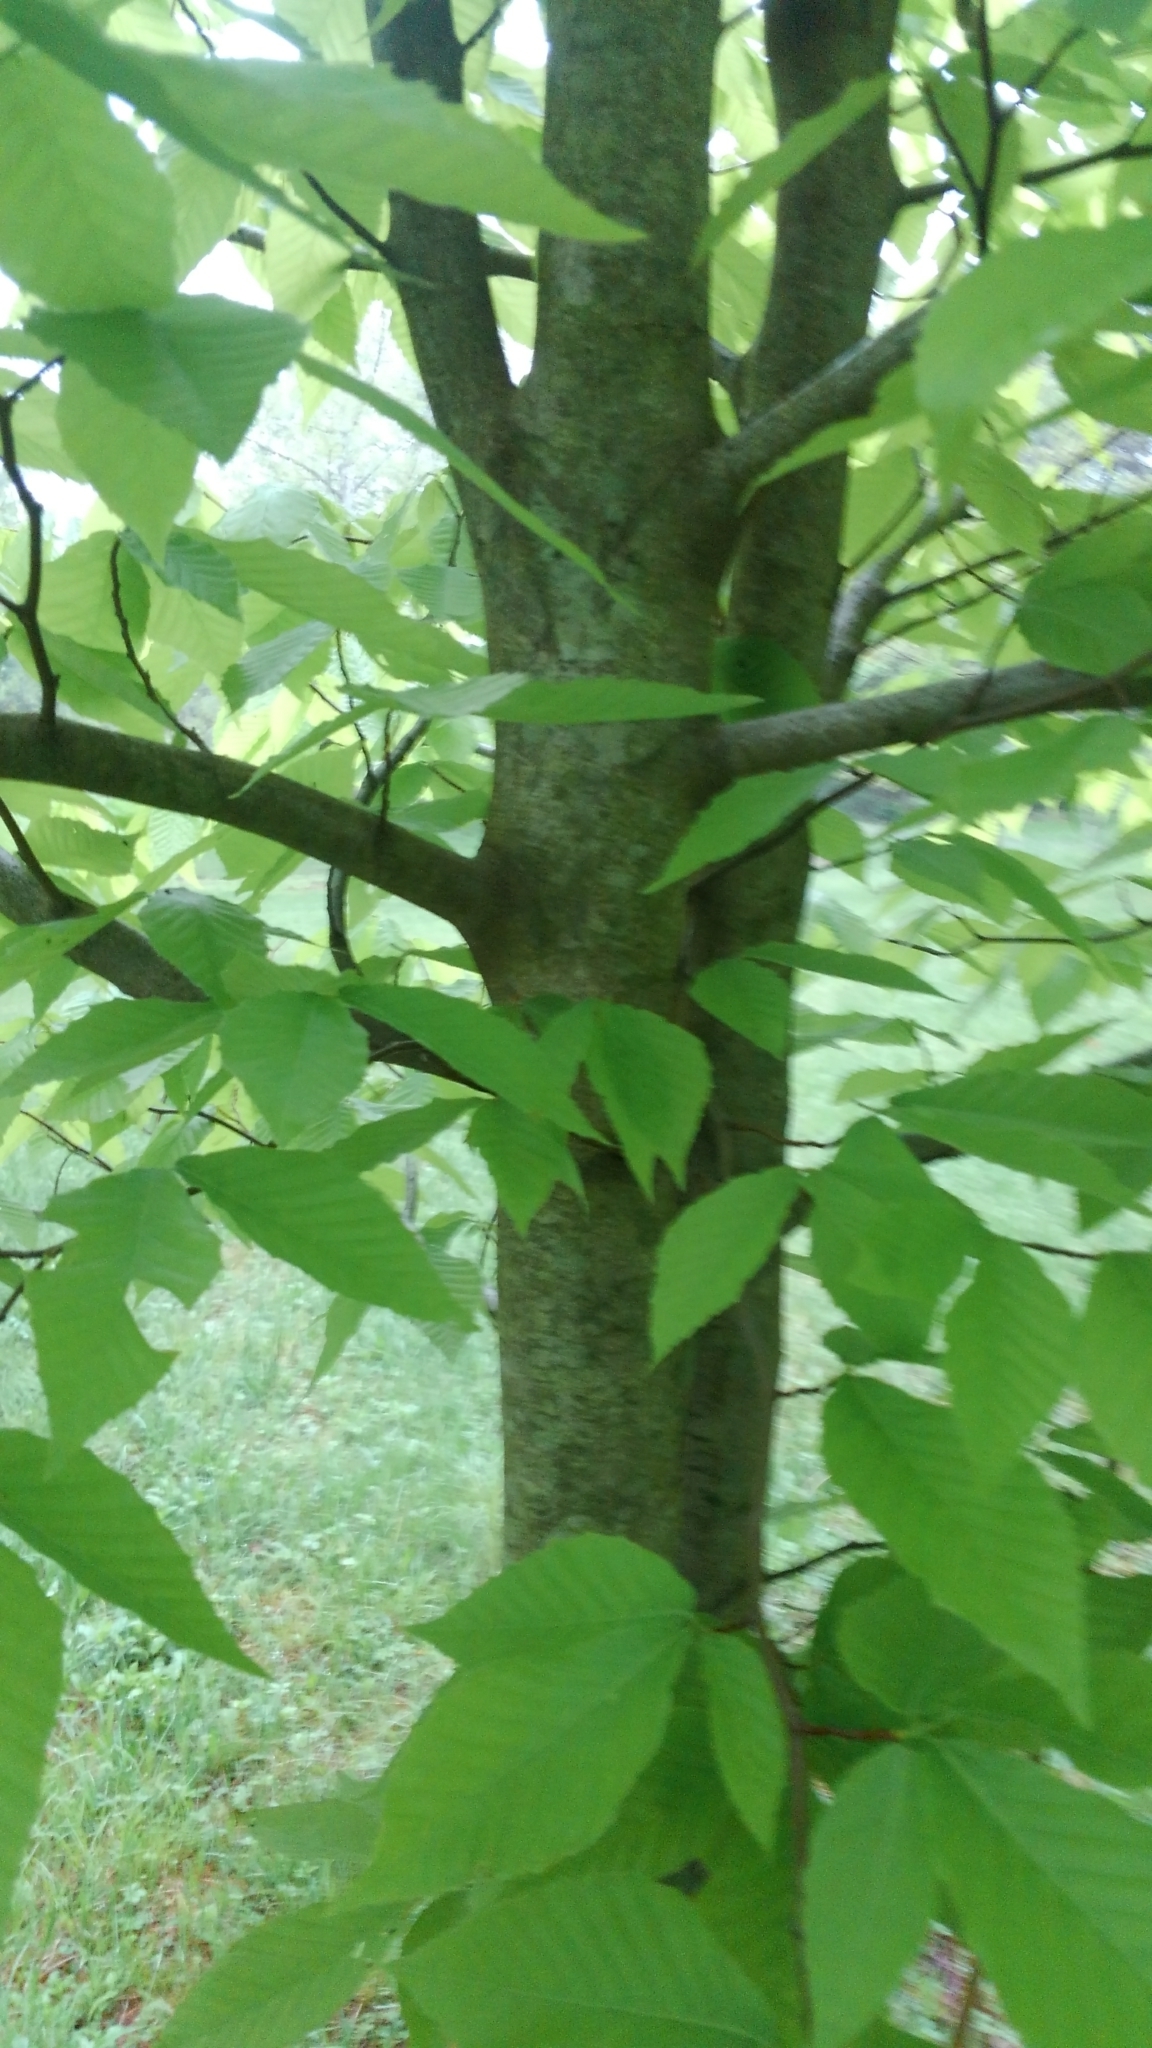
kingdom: Plantae
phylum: Tracheophyta
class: Magnoliopsida
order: Fagales
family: Fagaceae
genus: Fagus
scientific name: Fagus grandifolia
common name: American beech
